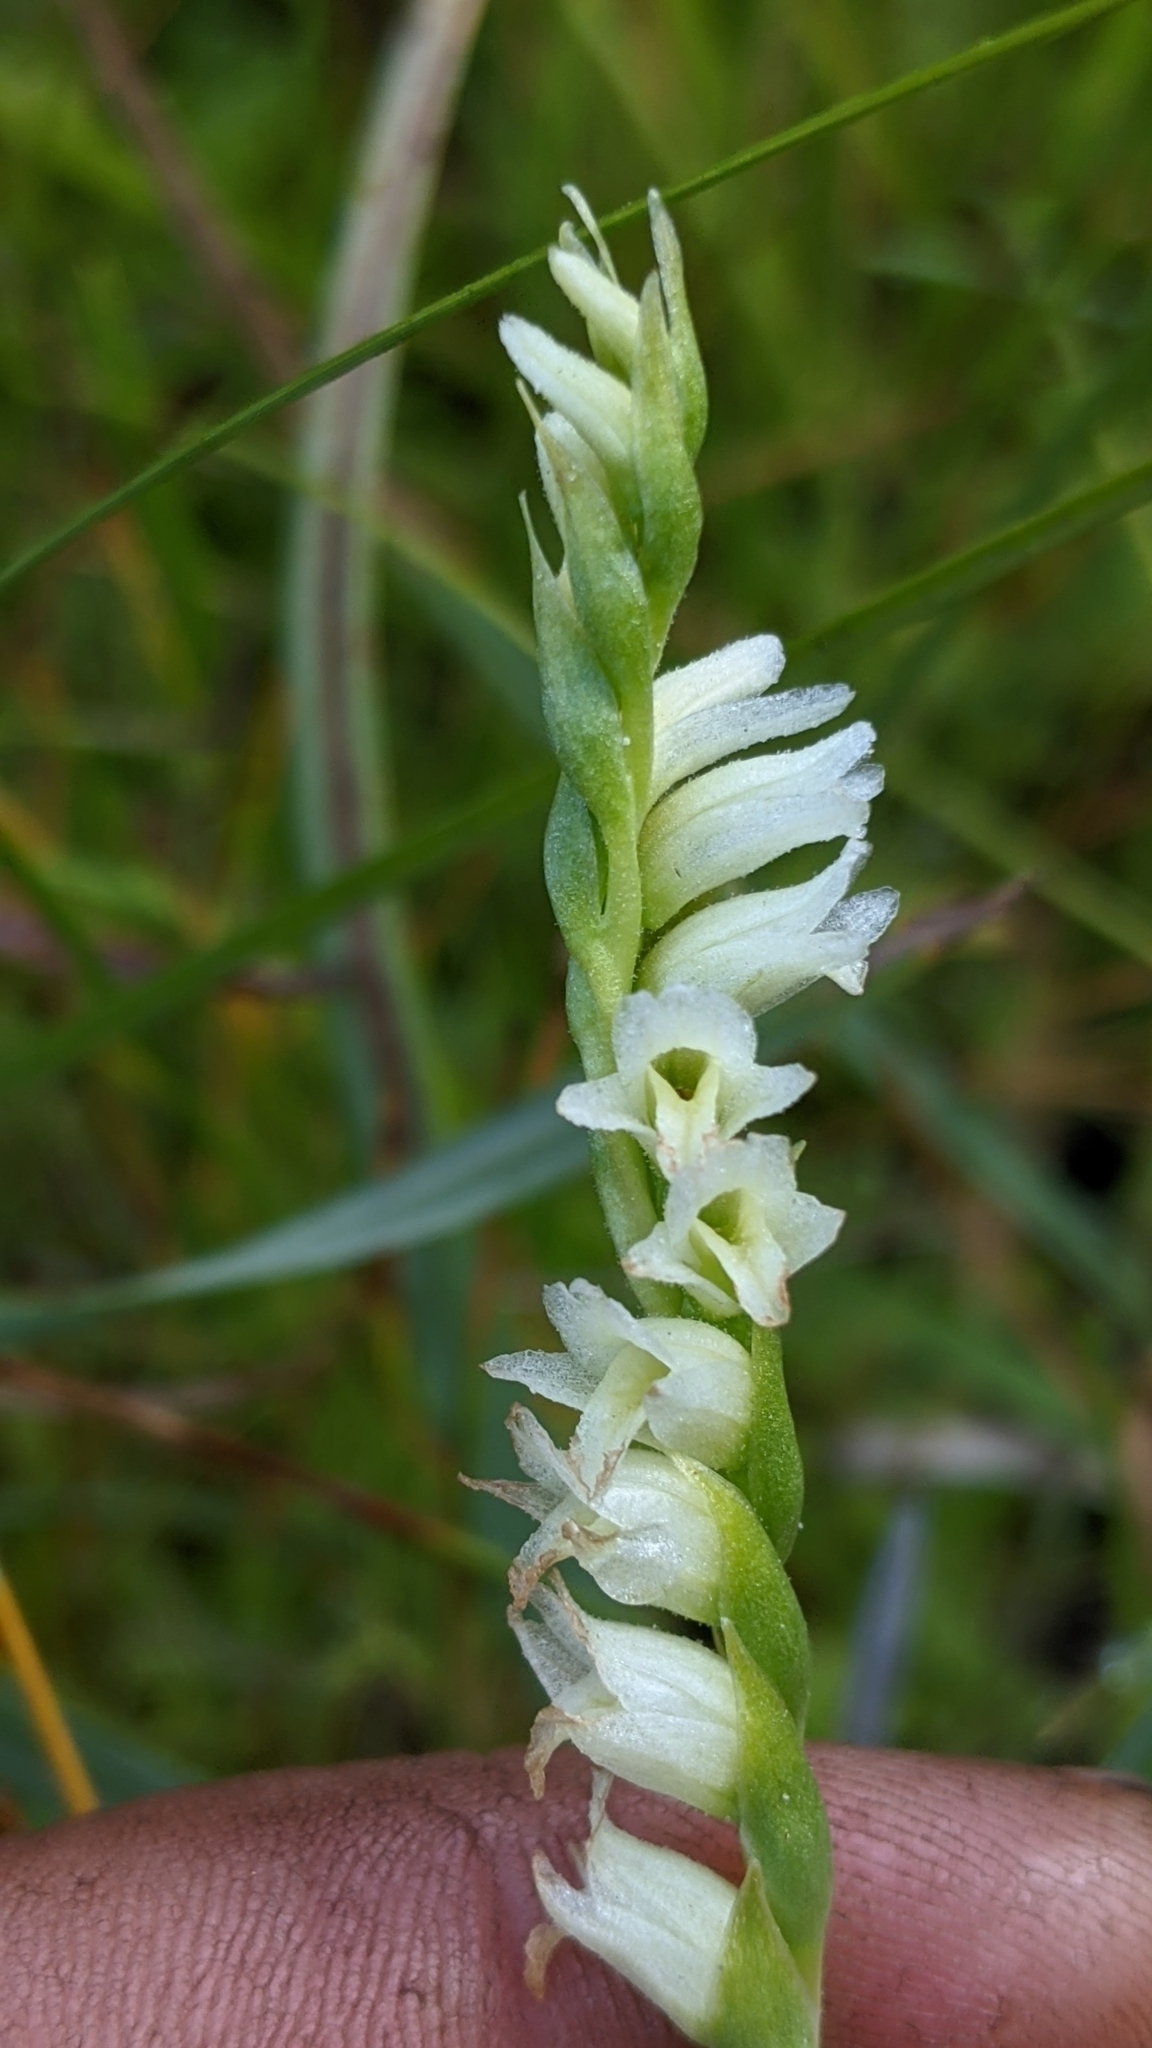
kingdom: Plantae
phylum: Tracheophyta
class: Liliopsida
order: Asparagales
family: Orchidaceae
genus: Spiranthes
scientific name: Spiranthes perexilis
